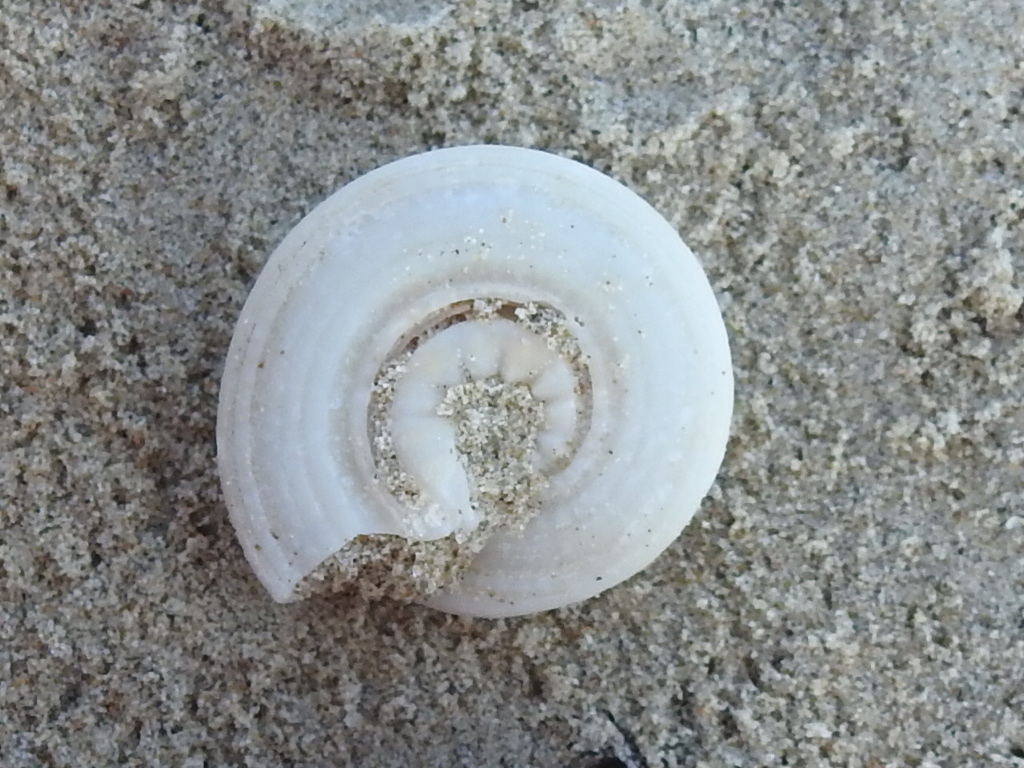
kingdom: Animalia
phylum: Mollusca
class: Gastropoda
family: Architectonicidae
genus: Architectonica
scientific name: Architectonica nobilis
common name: Common sundial
